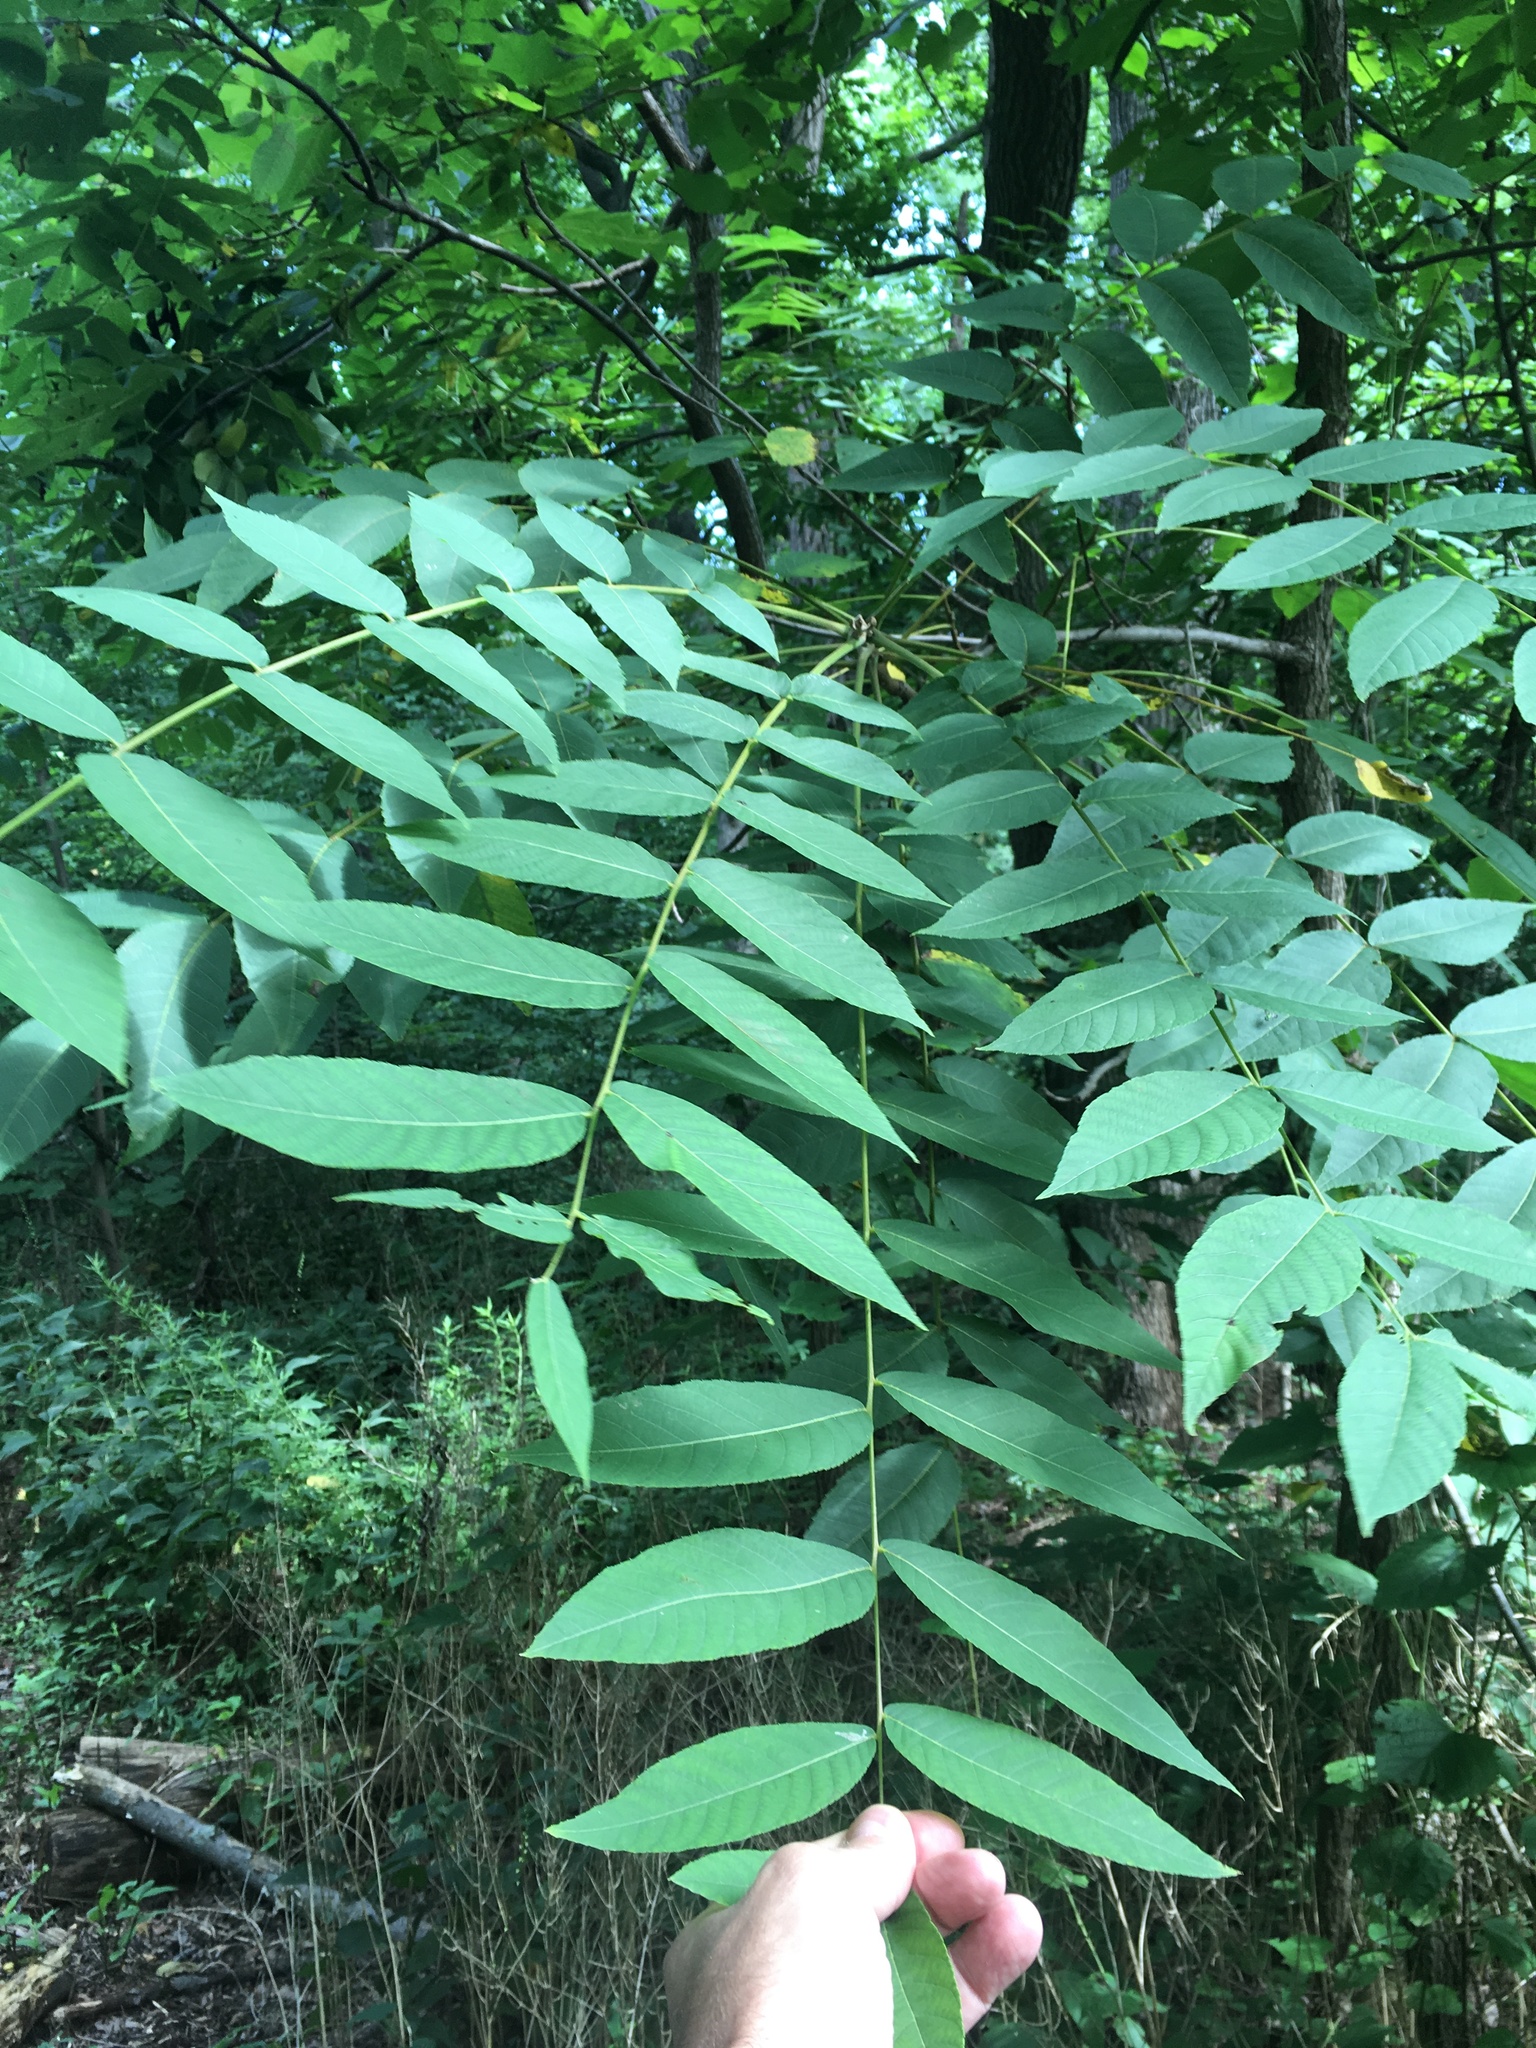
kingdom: Plantae
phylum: Tracheophyta
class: Magnoliopsida
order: Fagales
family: Juglandaceae
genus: Juglans
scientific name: Juglans nigra
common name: Black walnut
